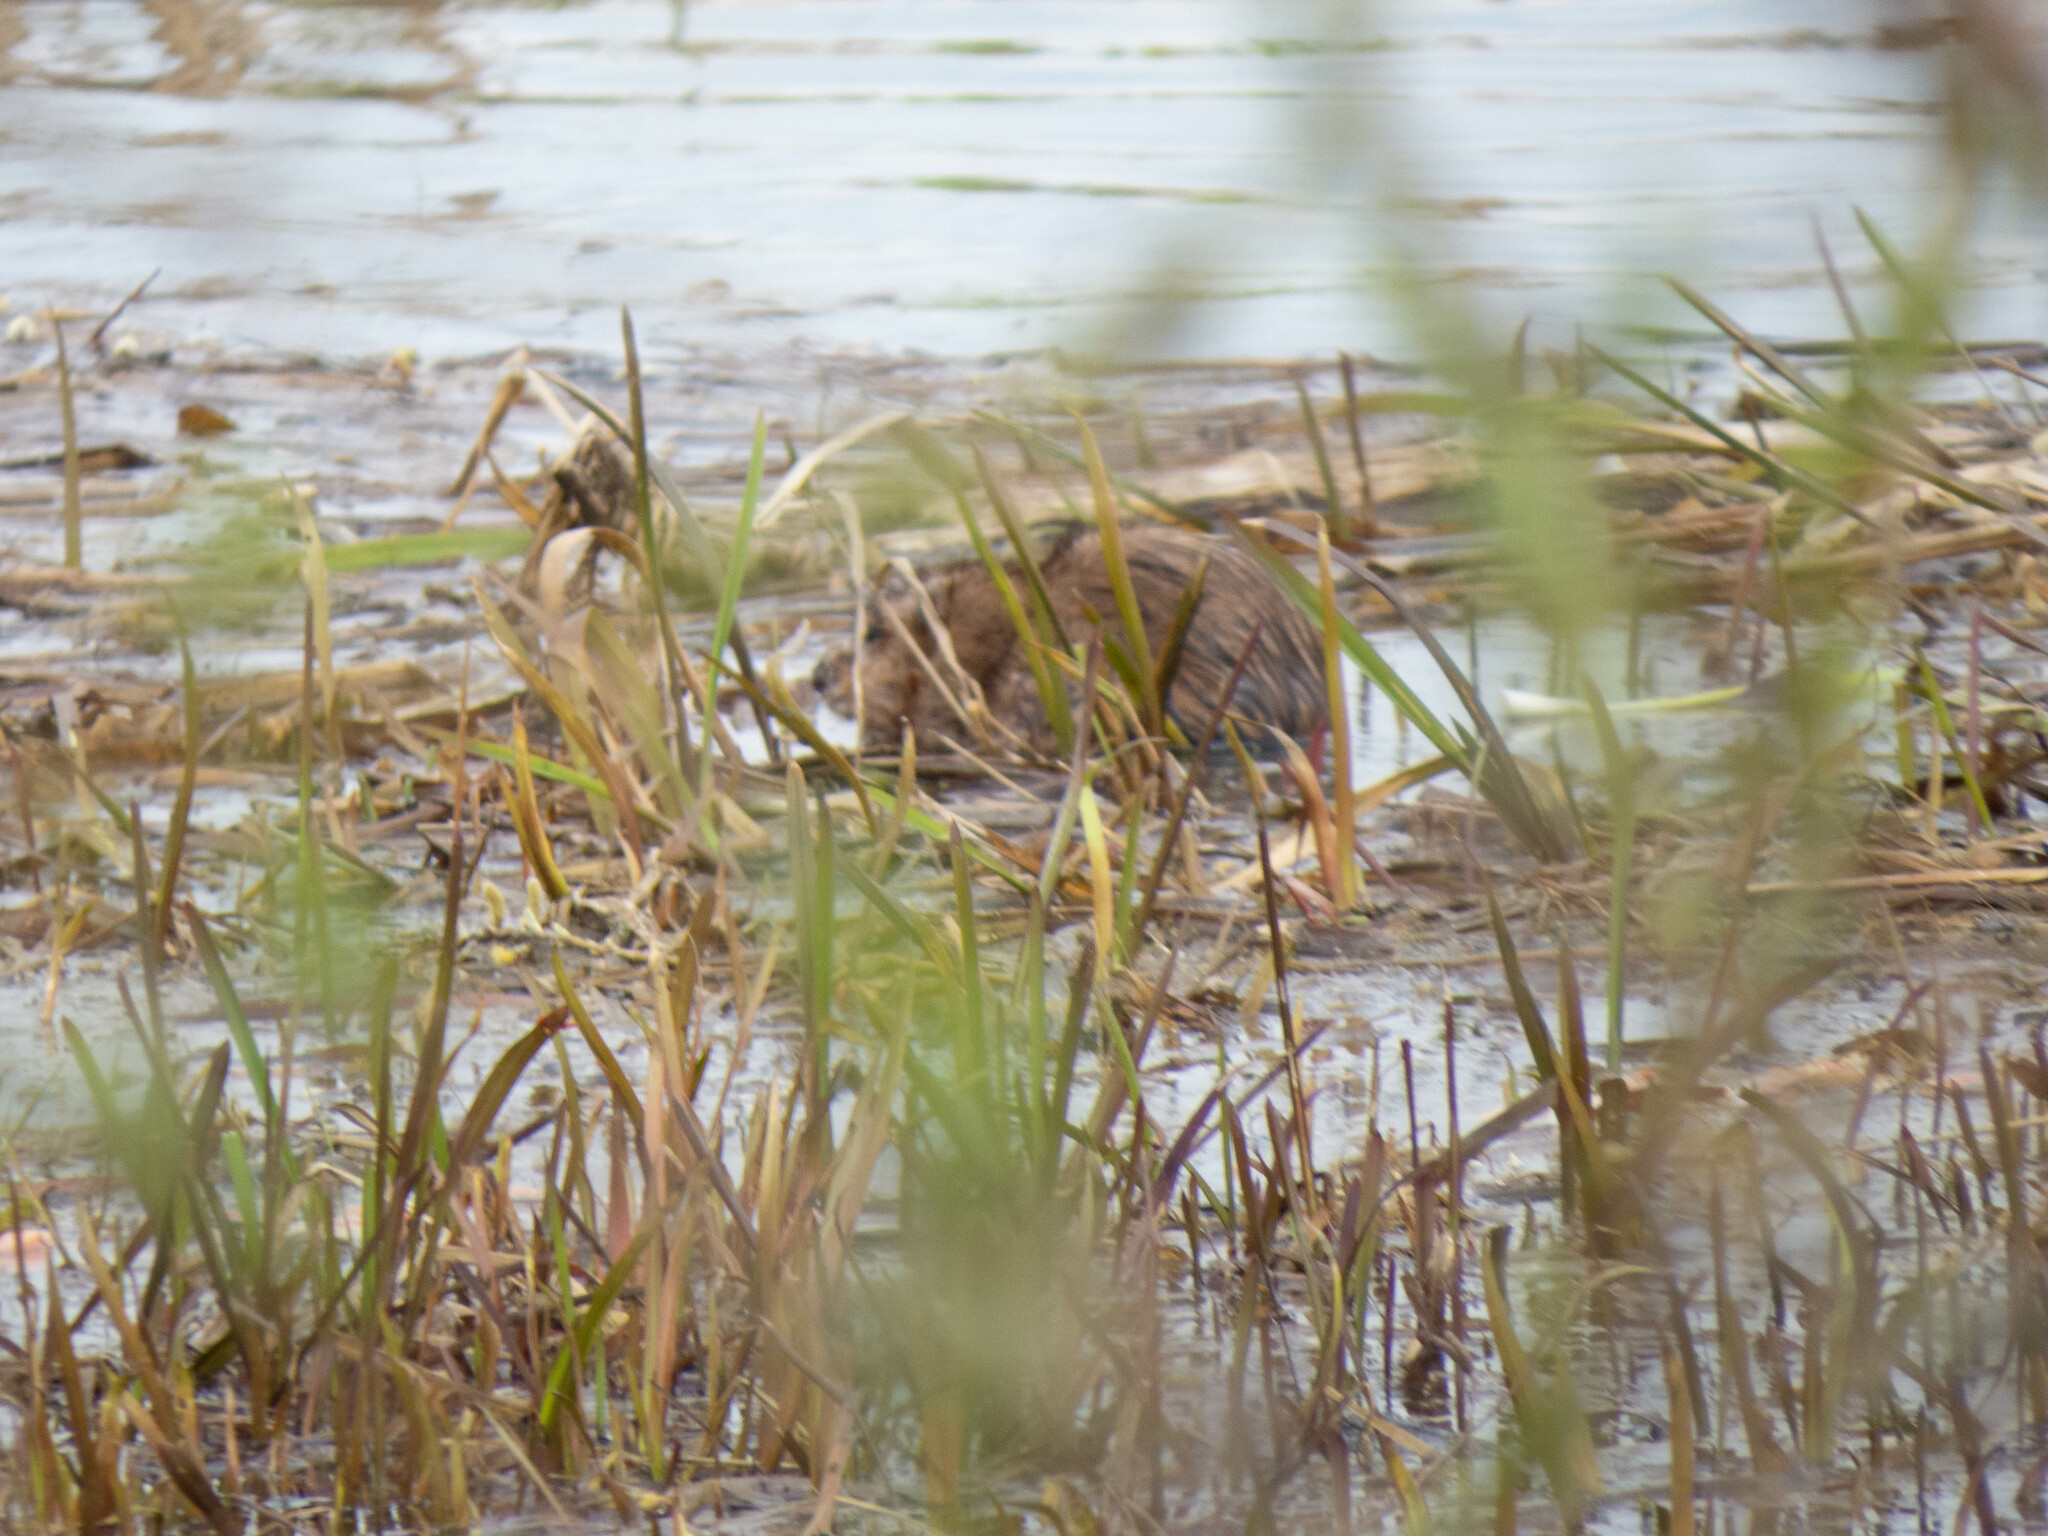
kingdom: Animalia
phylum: Chordata
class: Mammalia
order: Rodentia
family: Cricetidae
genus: Ondatra
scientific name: Ondatra zibethicus
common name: Muskrat
